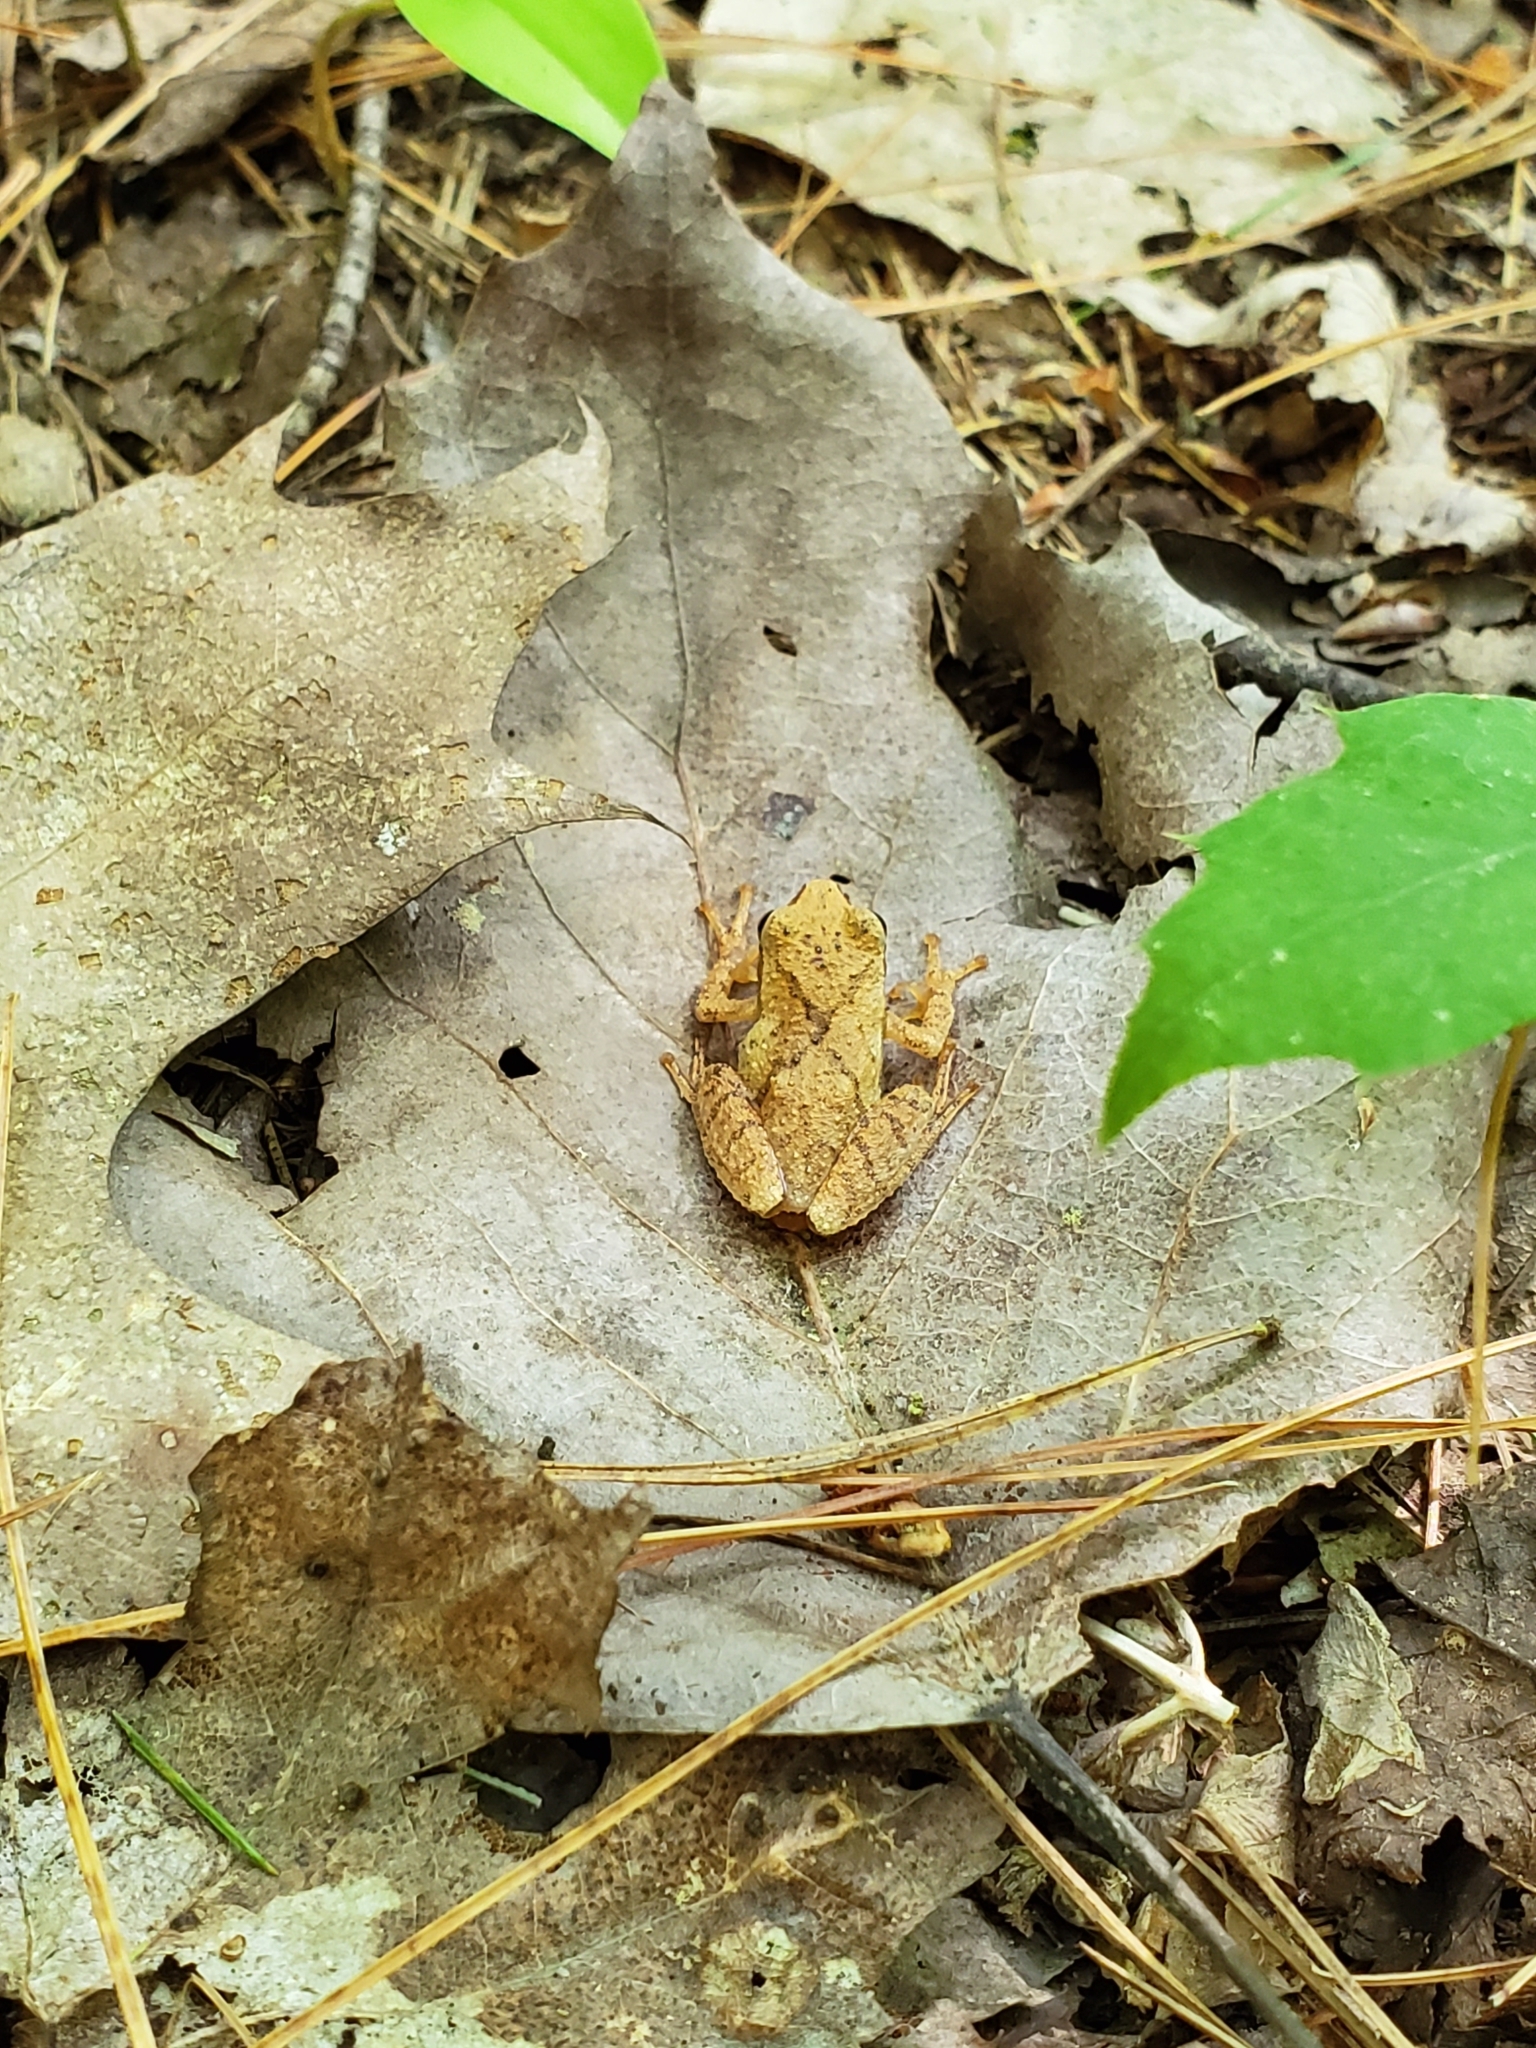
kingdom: Animalia
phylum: Chordata
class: Amphibia
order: Anura
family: Hylidae
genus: Pseudacris
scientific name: Pseudacris crucifer
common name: Spring peeper
